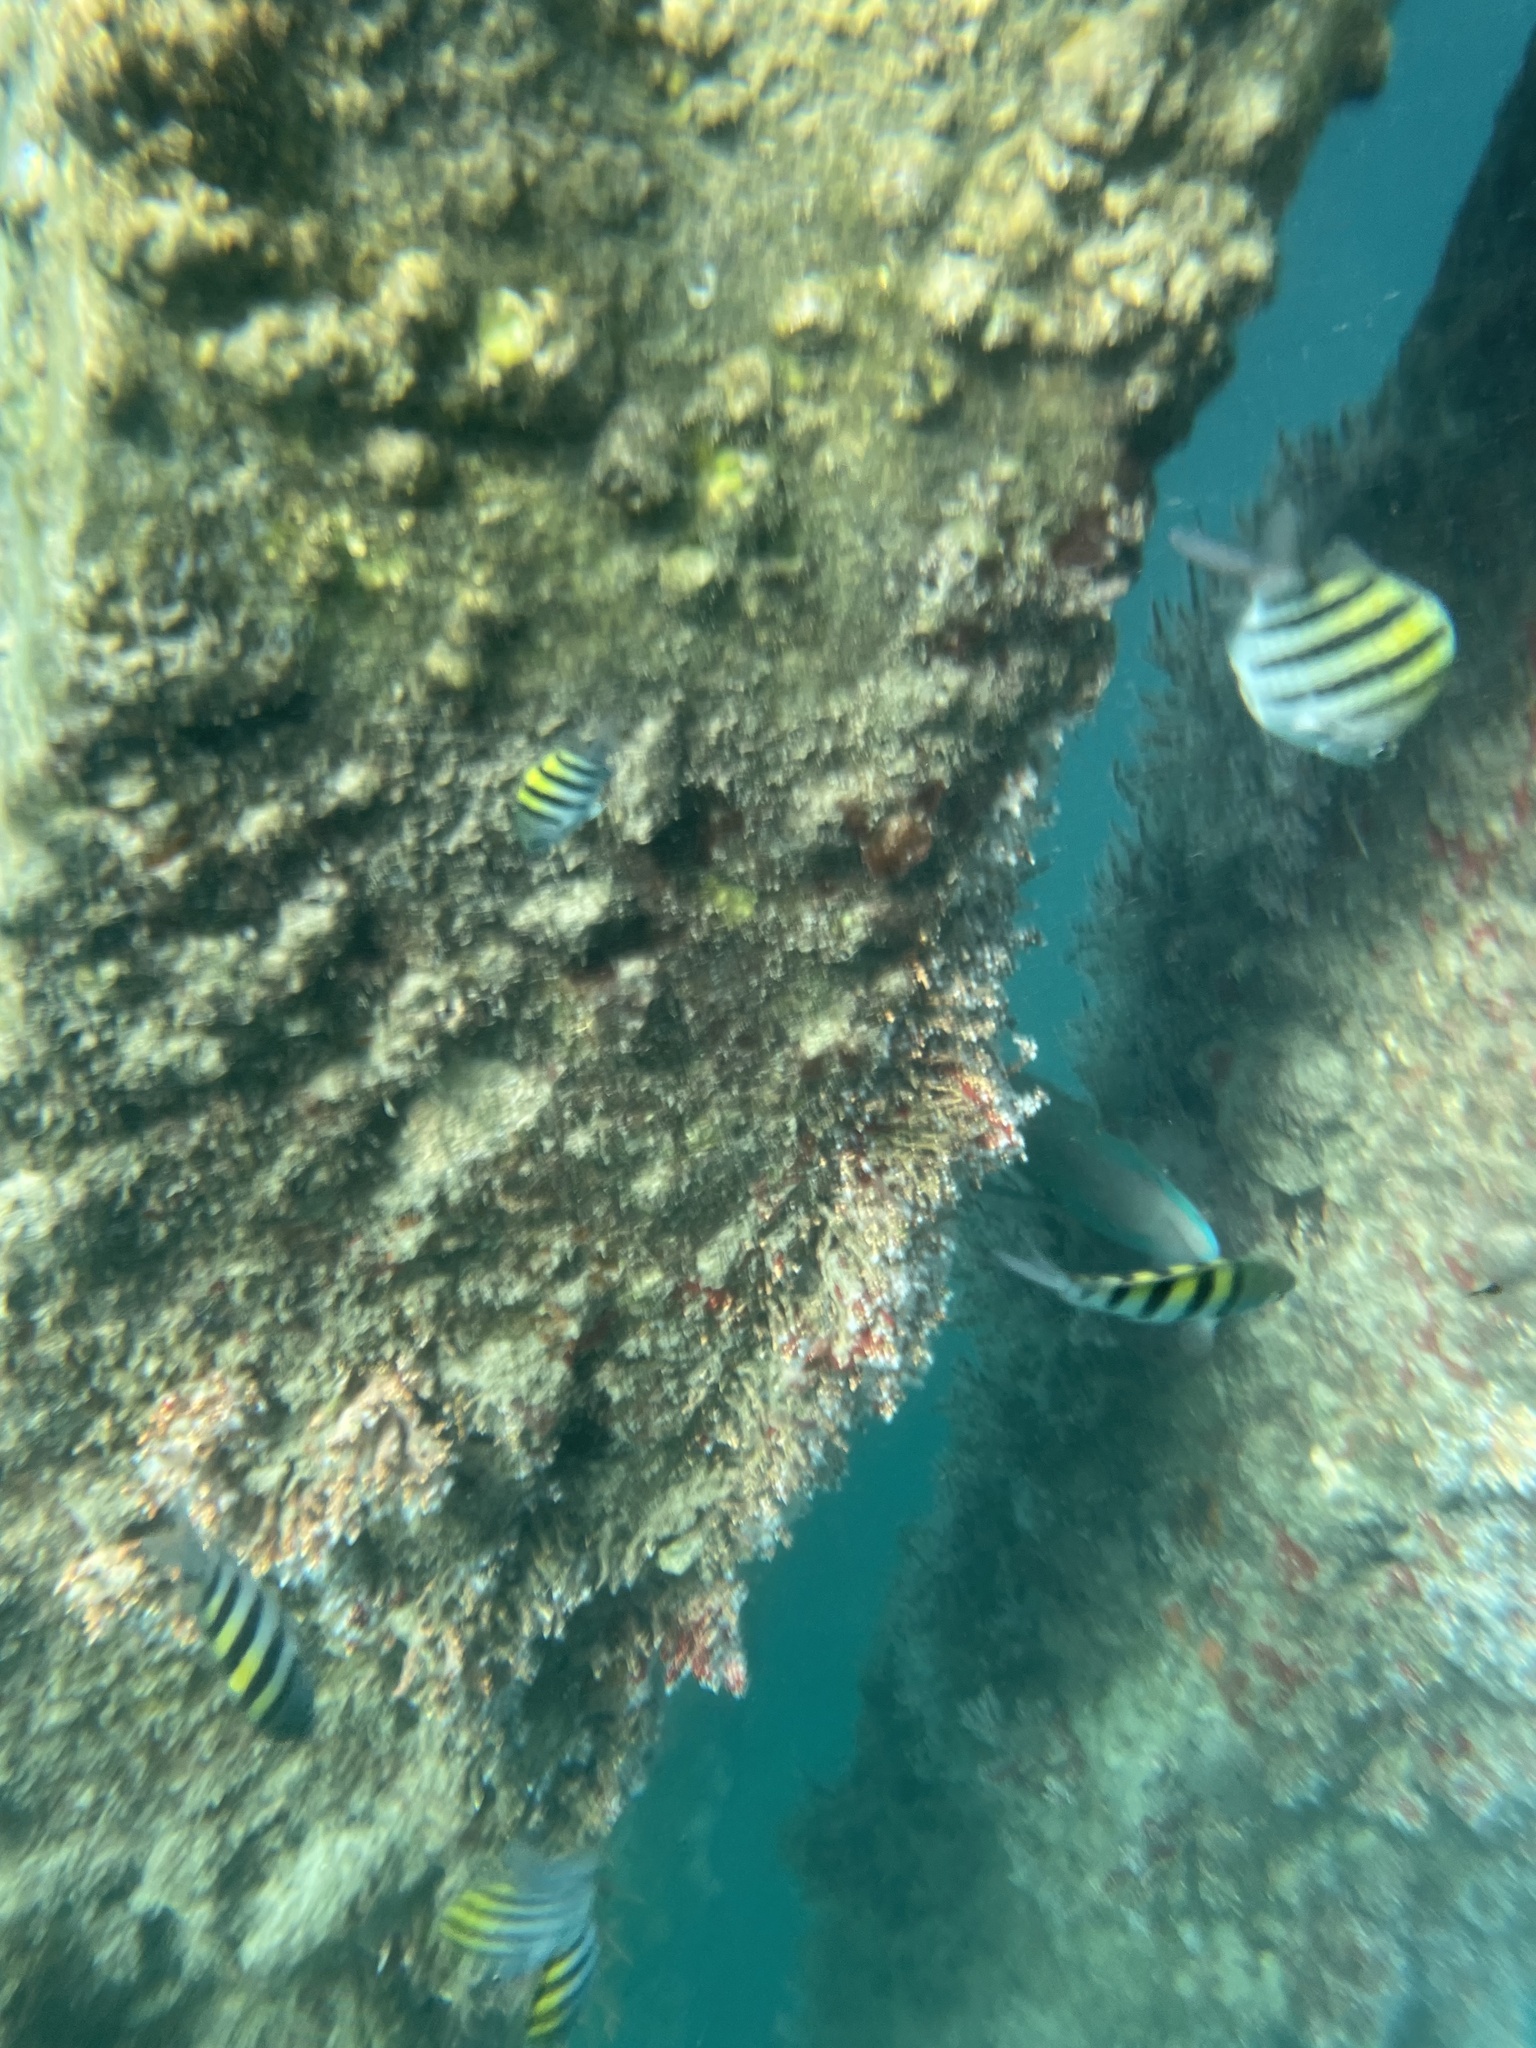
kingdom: Animalia
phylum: Chordata
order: Perciformes
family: Scaridae
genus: Sparisoma
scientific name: Sparisoma viride
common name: Stoplight parrotfish
